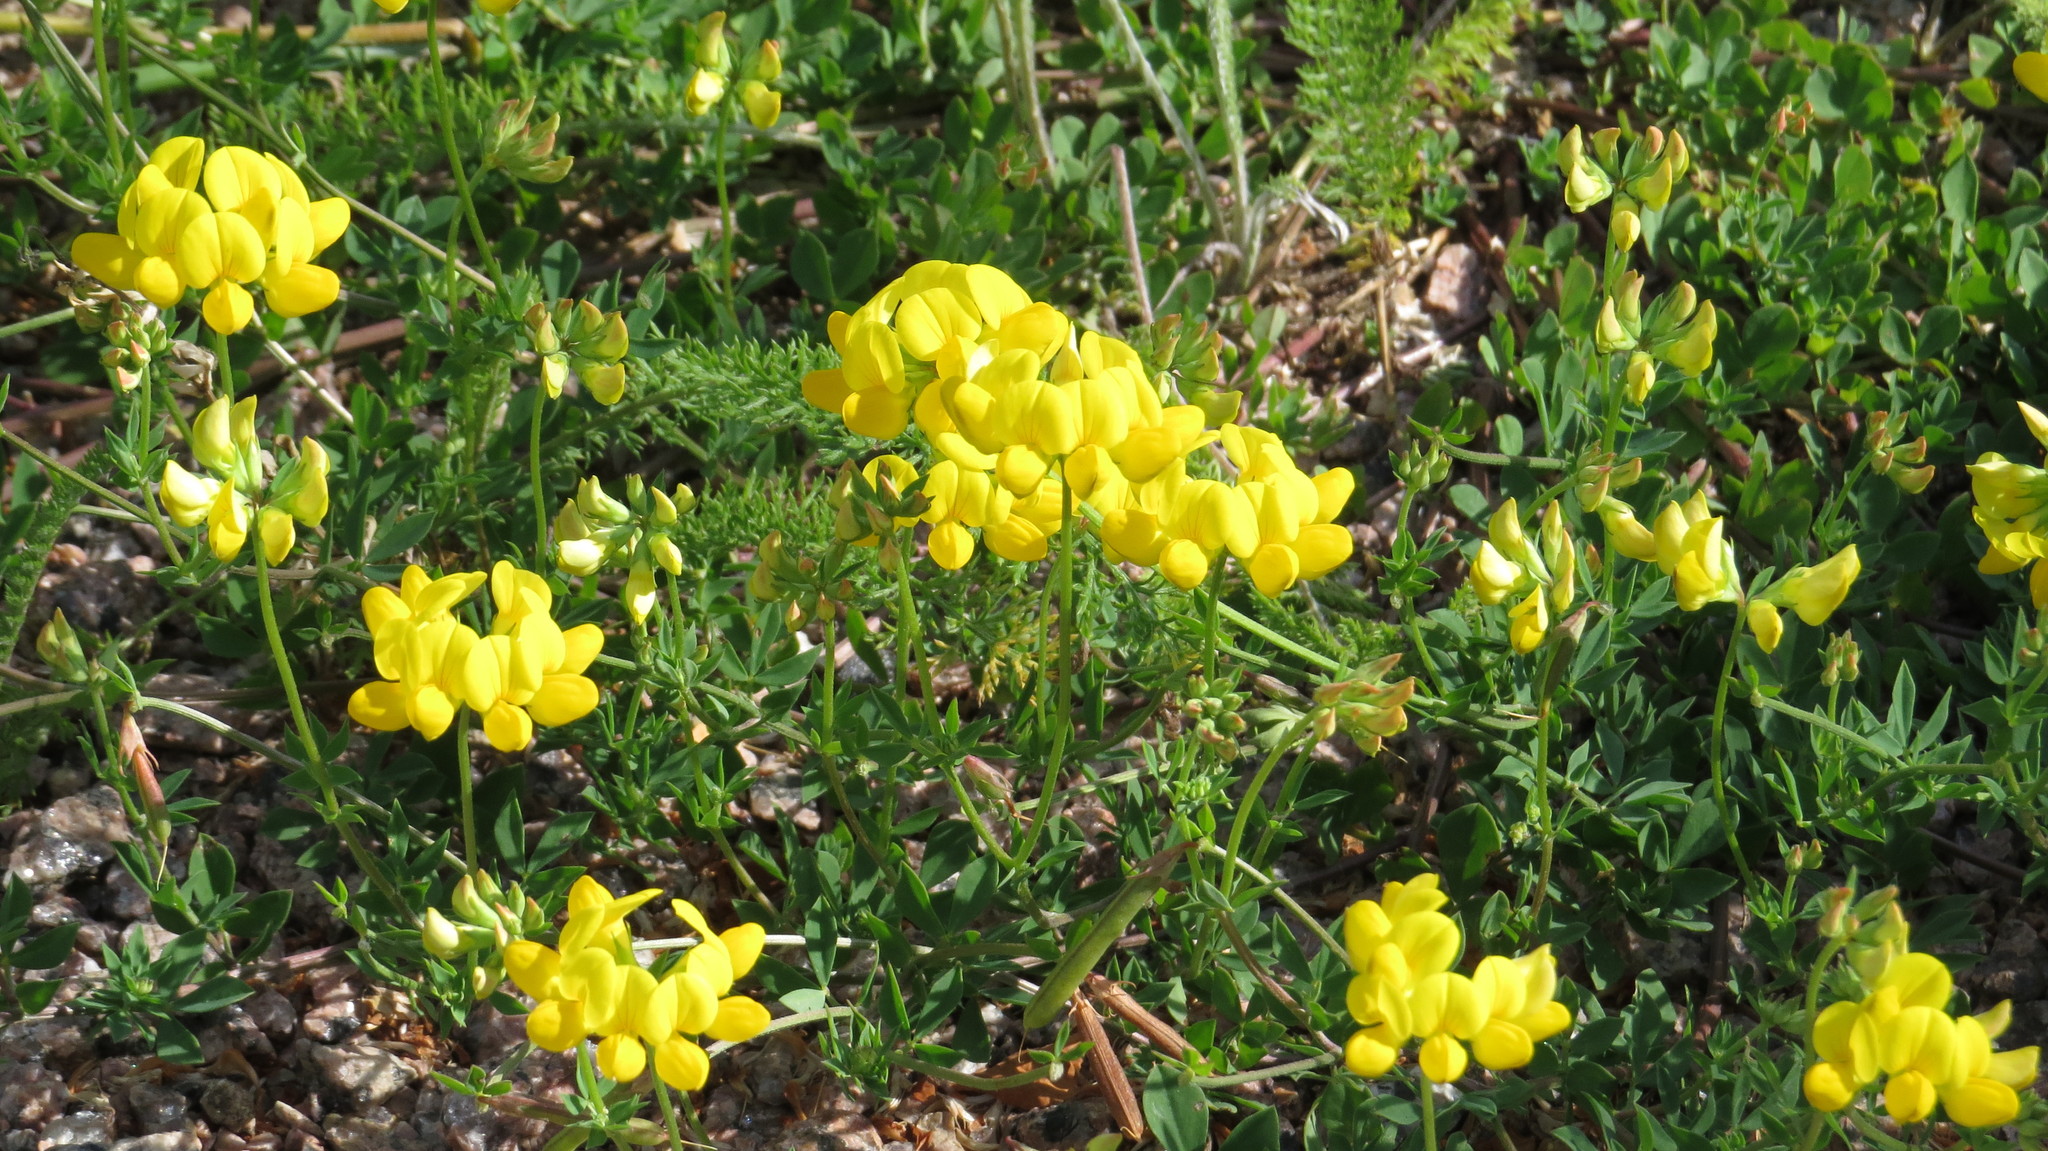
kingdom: Plantae
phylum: Tracheophyta
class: Magnoliopsida
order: Fabales
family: Fabaceae
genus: Lotus
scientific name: Lotus corniculatus
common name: Common bird's-foot-trefoil
